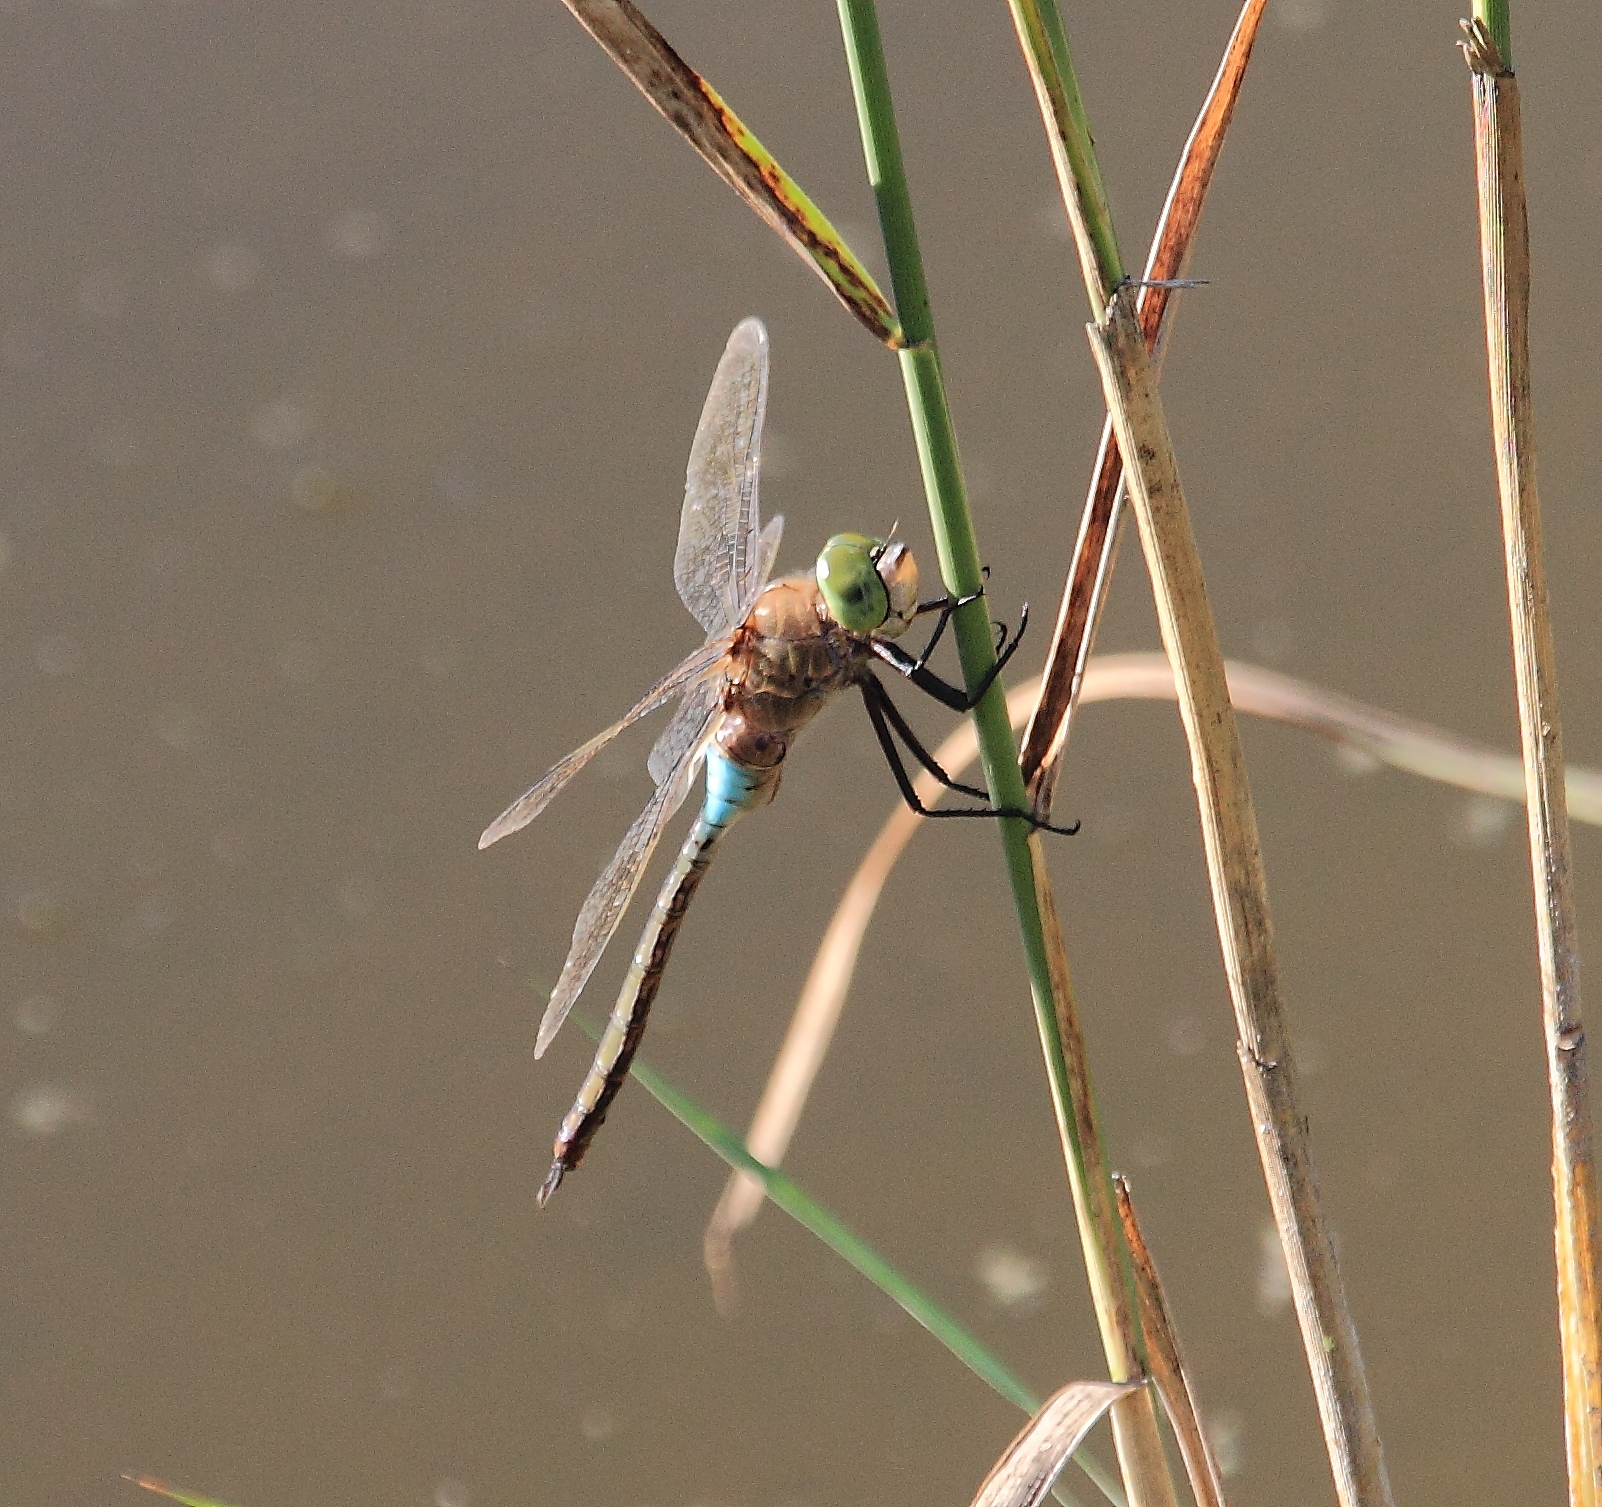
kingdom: Animalia
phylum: Arthropoda
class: Insecta
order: Odonata
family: Aeshnidae
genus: Anax
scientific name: Anax parthenope
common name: Lesser emperor
